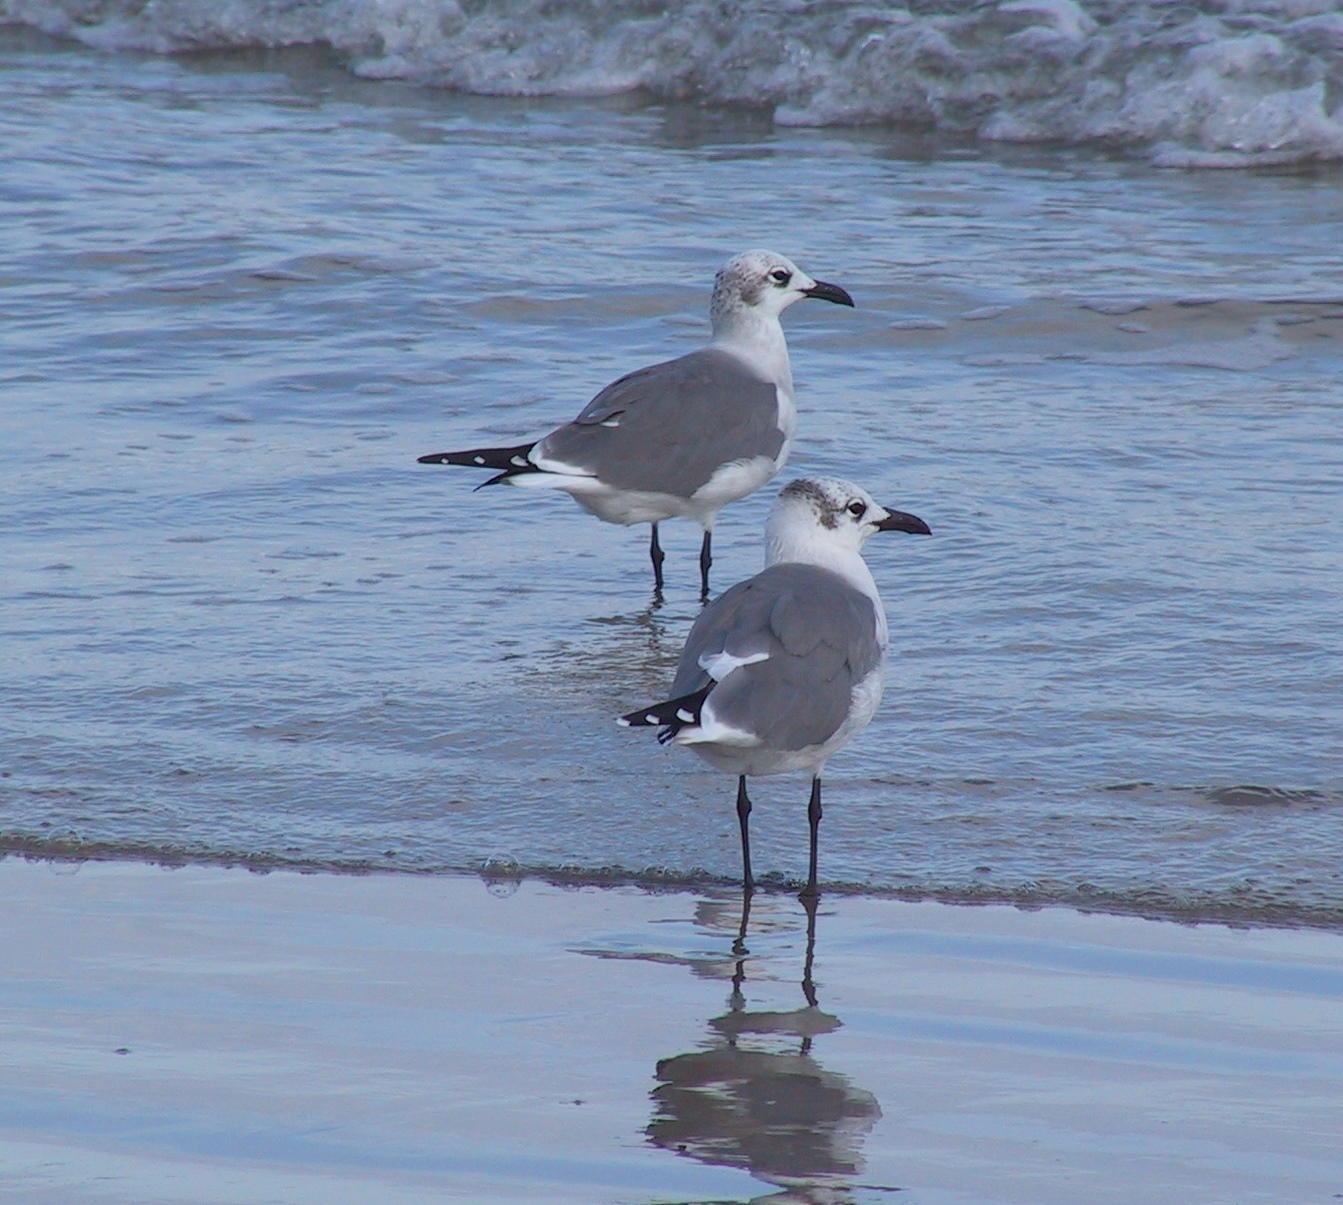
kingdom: Animalia
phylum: Chordata
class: Aves
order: Charadriiformes
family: Laridae
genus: Leucophaeus
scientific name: Leucophaeus atricilla
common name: Laughing gull
